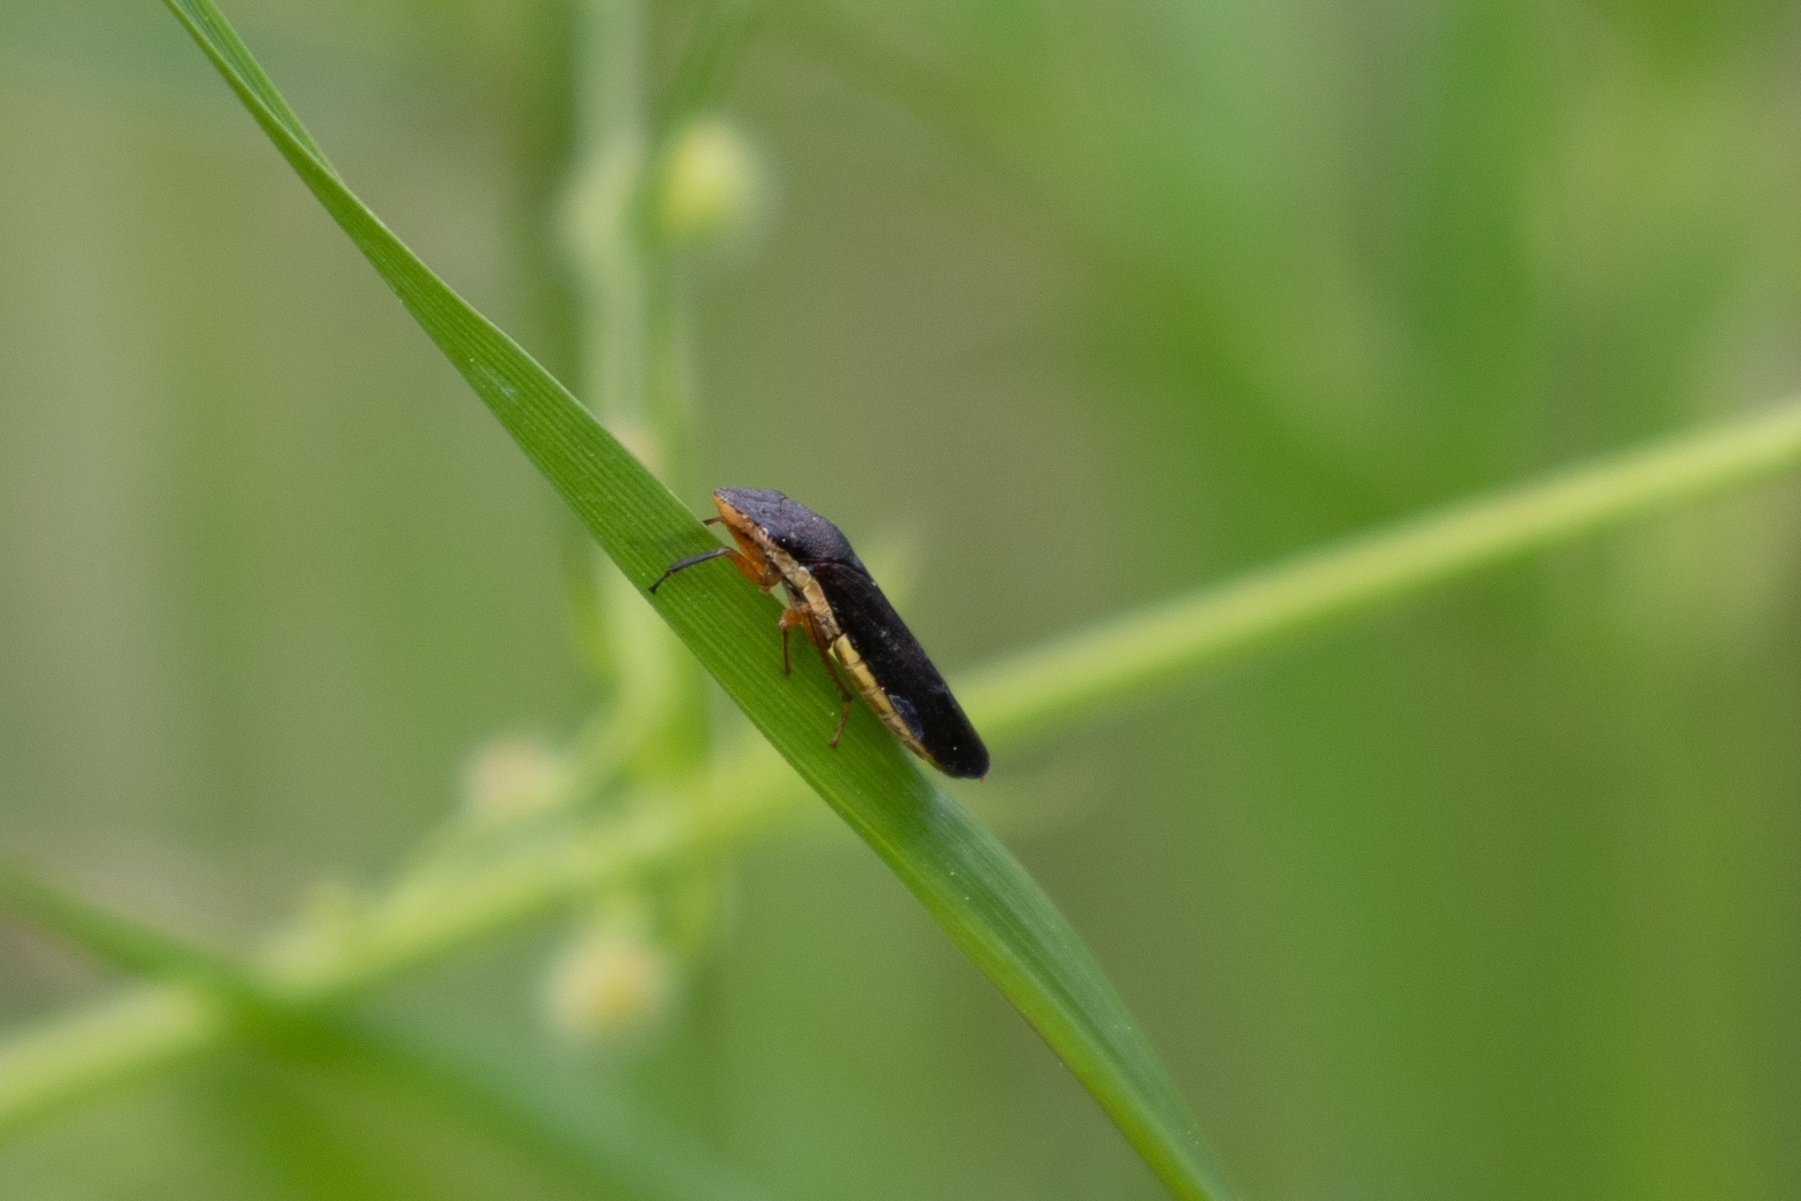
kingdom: Animalia
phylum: Arthropoda
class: Insecta
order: Hemiptera
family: Cicadellidae
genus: Homalodisca
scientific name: Homalodisca insolita
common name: Johnson grass sharpshooter
